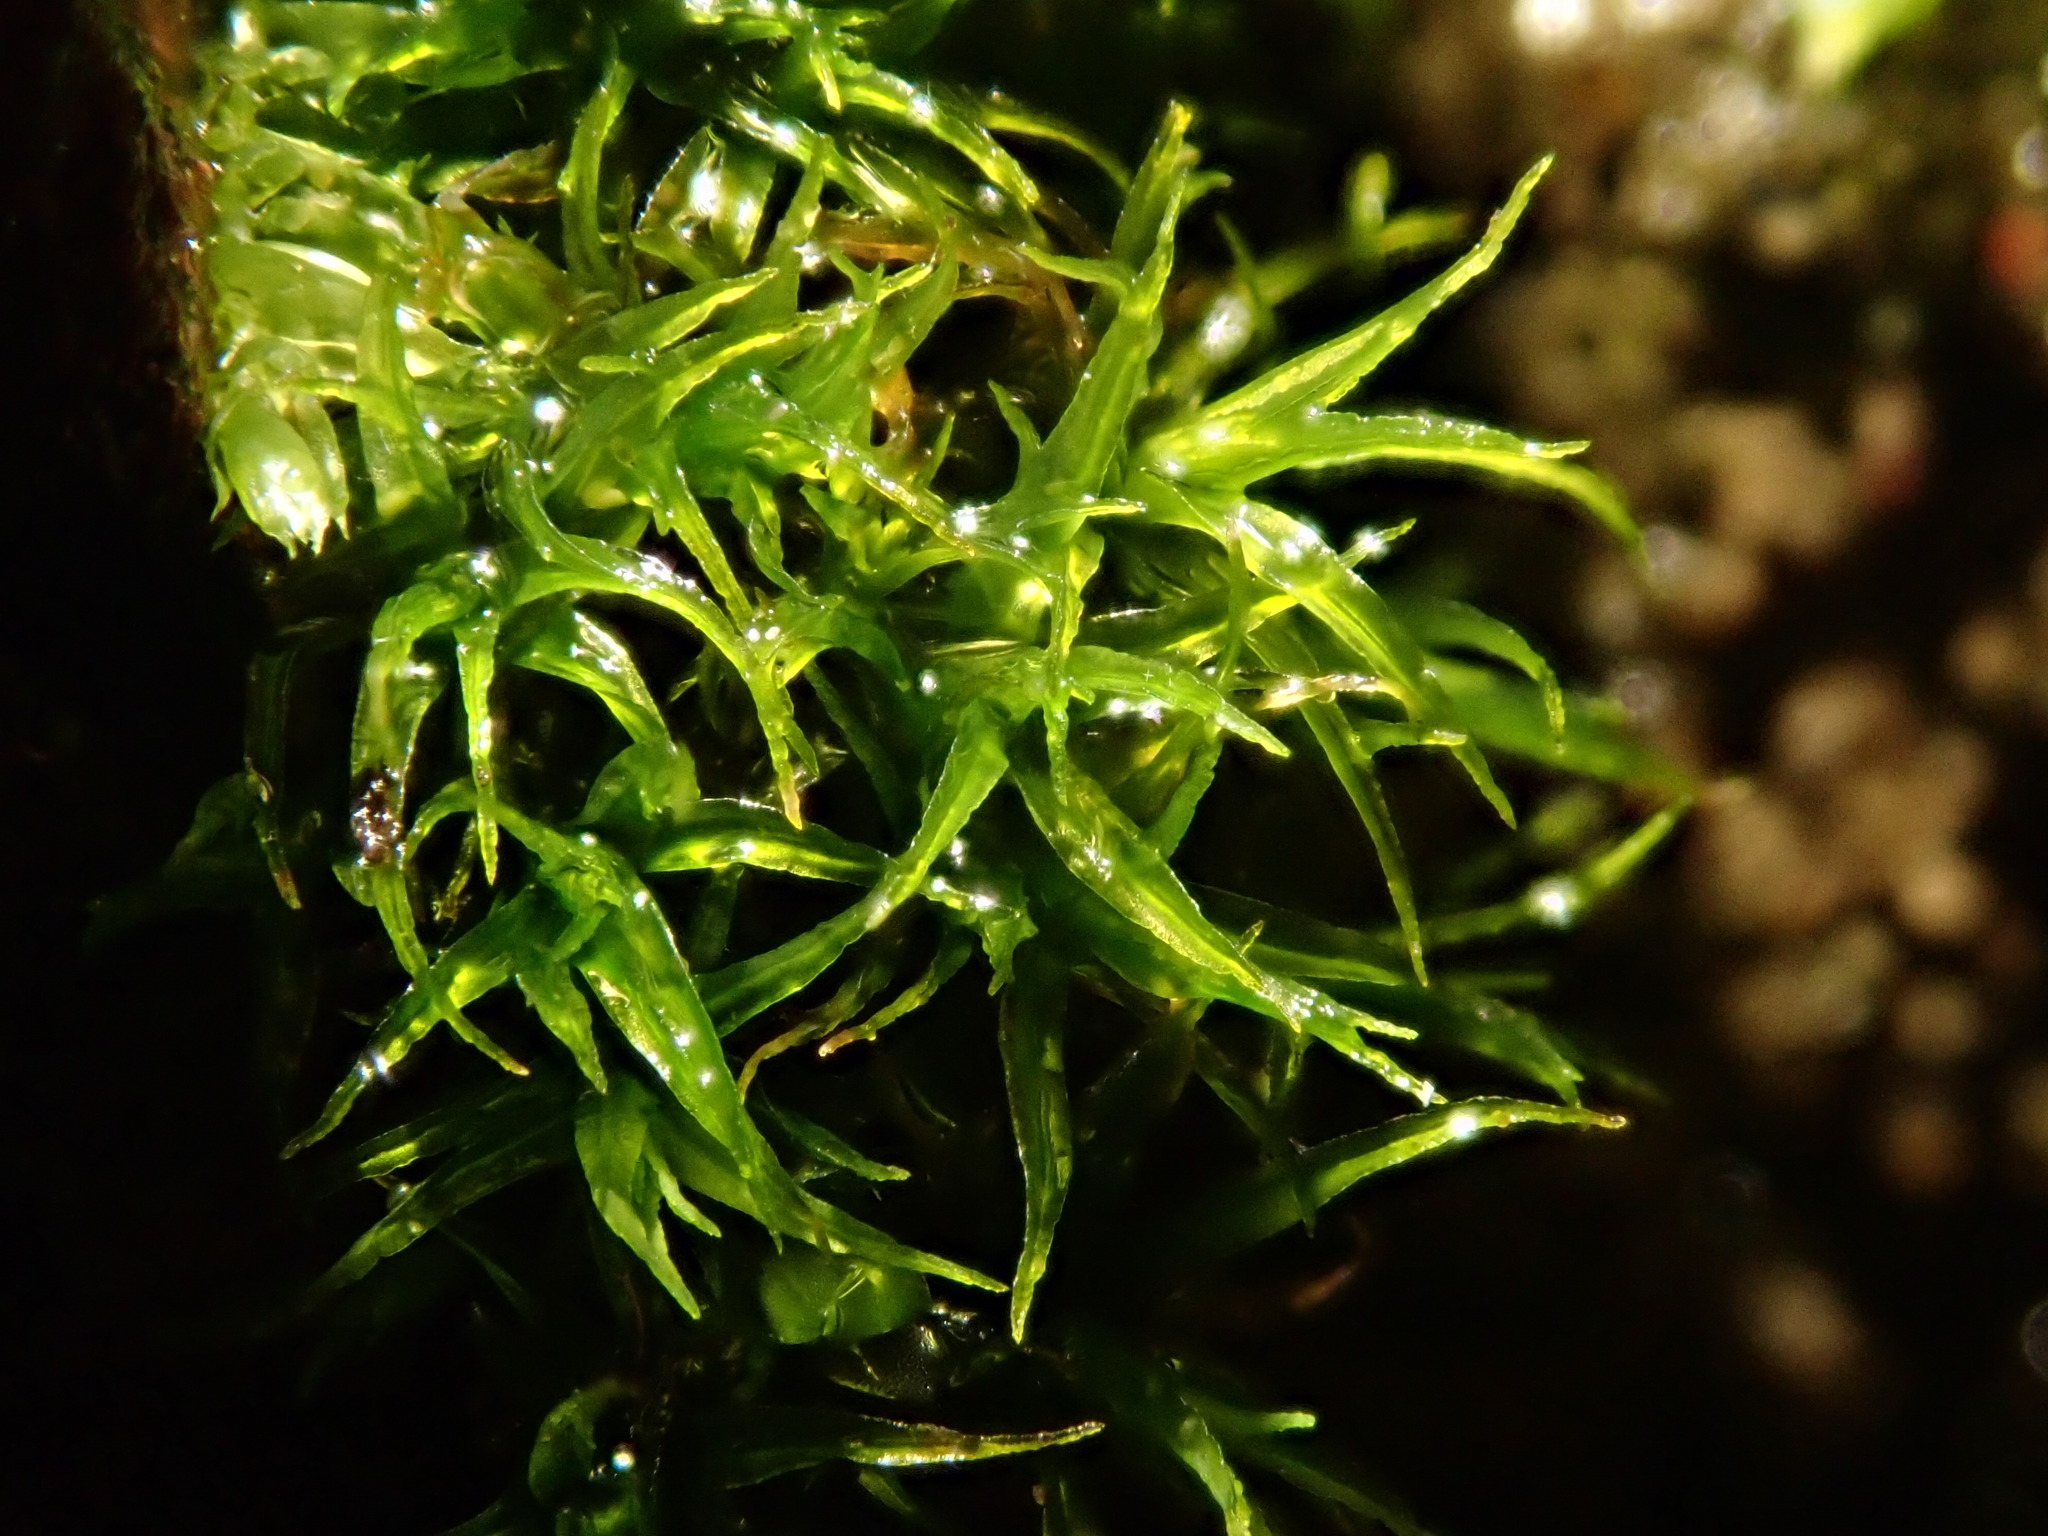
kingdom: Plantae
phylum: Bryophyta
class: Bryopsida
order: Pottiales
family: Pottiaceae
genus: Vinealobryum
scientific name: Vinealobryum insulanum
